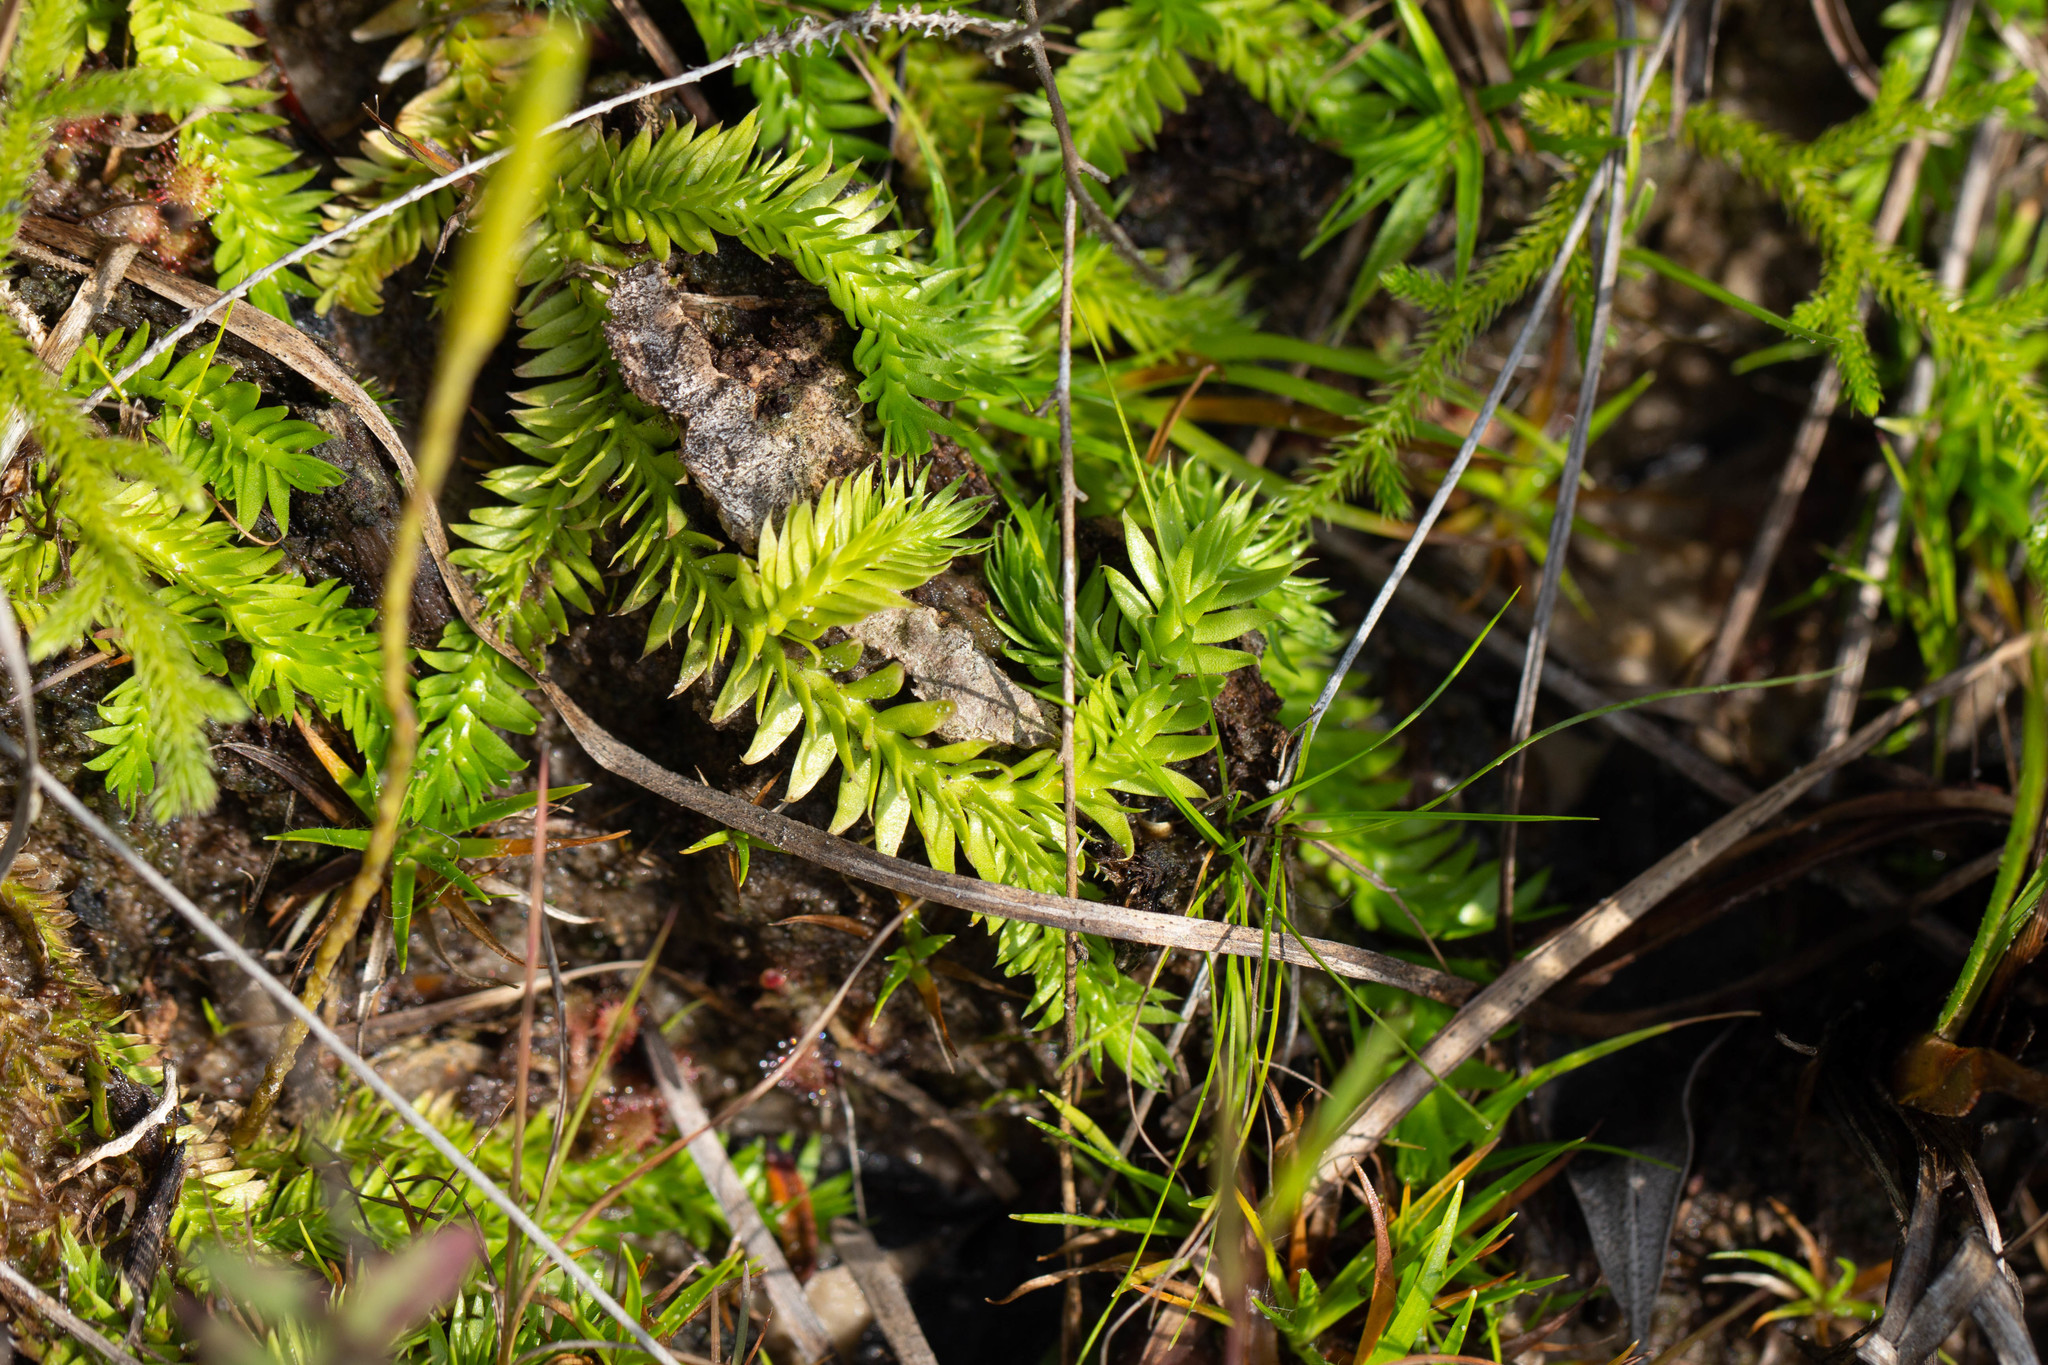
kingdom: Plantae
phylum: Tracheophyta
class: Lycopodiopsida
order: Lycopodiales
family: Lycopodiaceae
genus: Pseudolycopodiella
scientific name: Pseudolycopodiella caroliniana
